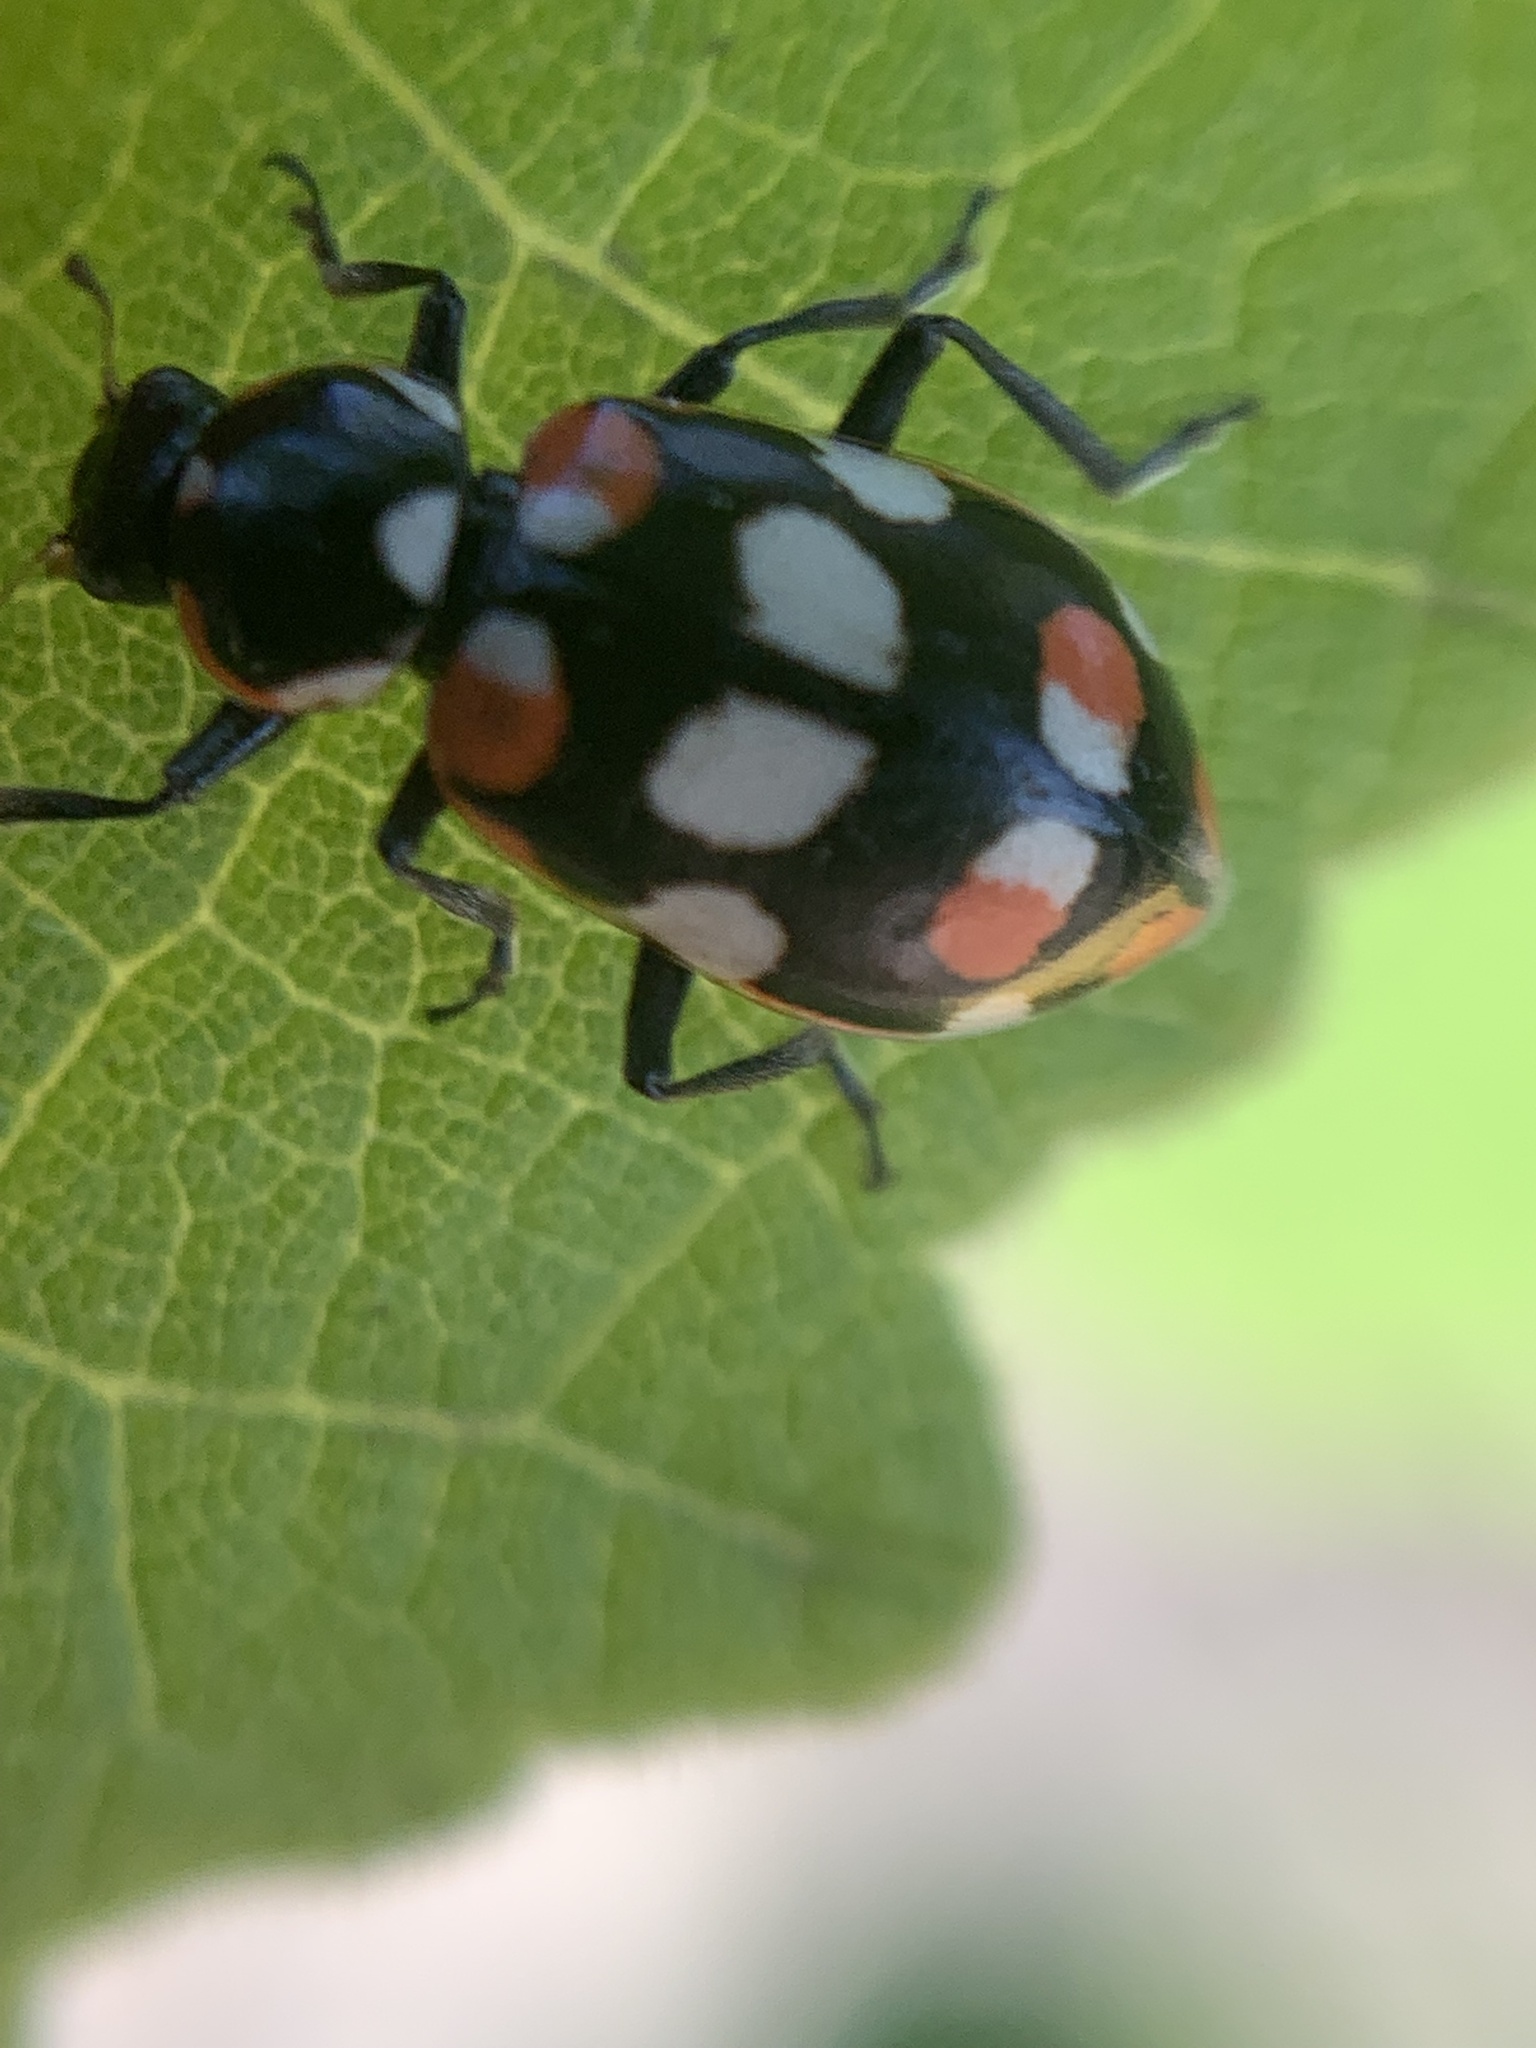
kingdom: Animalia
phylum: Arthropoda
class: Insecta
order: Coleoptera
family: Coccinellidae
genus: Eriopis
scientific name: Eriopis connexa
